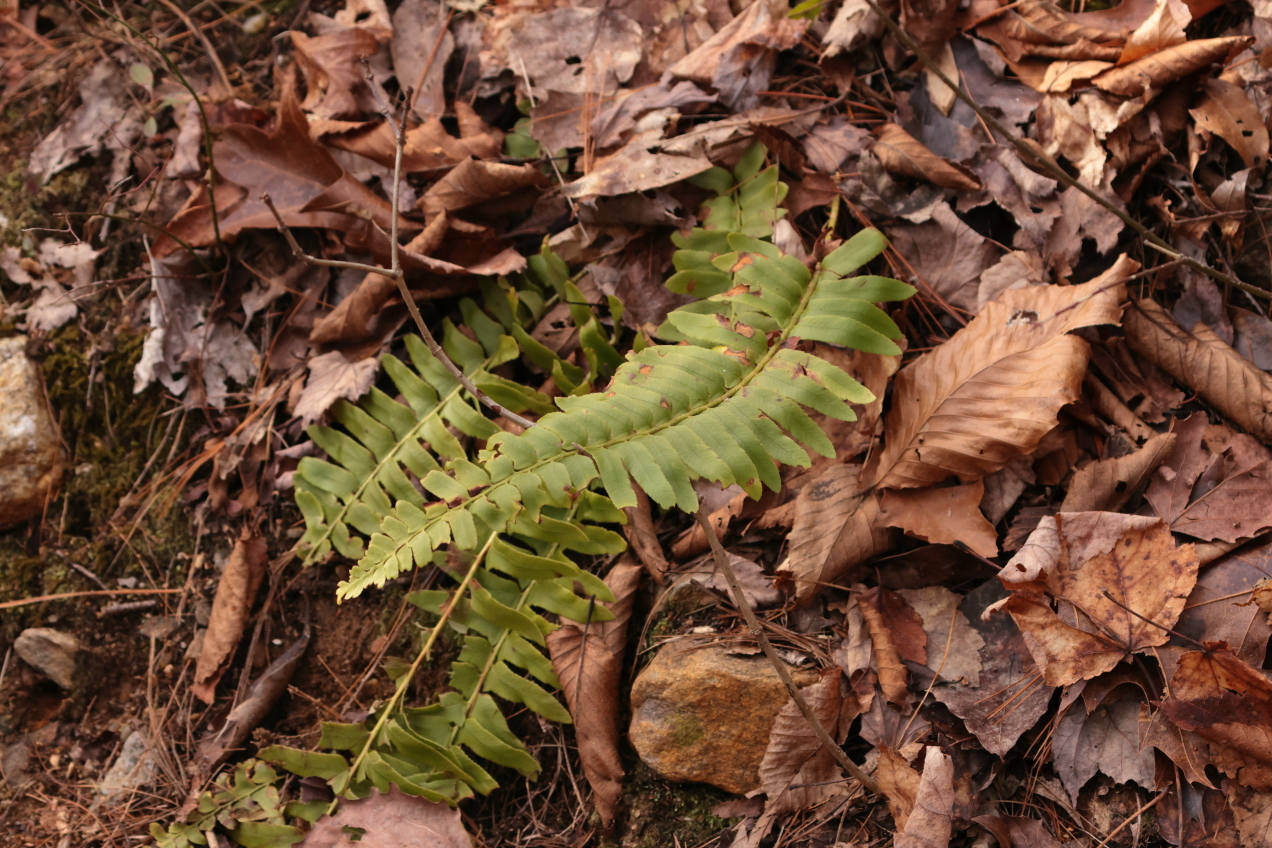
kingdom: Plantae
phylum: Tracheophyta
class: Polypodiopsida
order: Polypodiales
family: Dryopteridaceae
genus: Polystichum
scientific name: Polystichum acrostichoides
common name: Christmas fern
